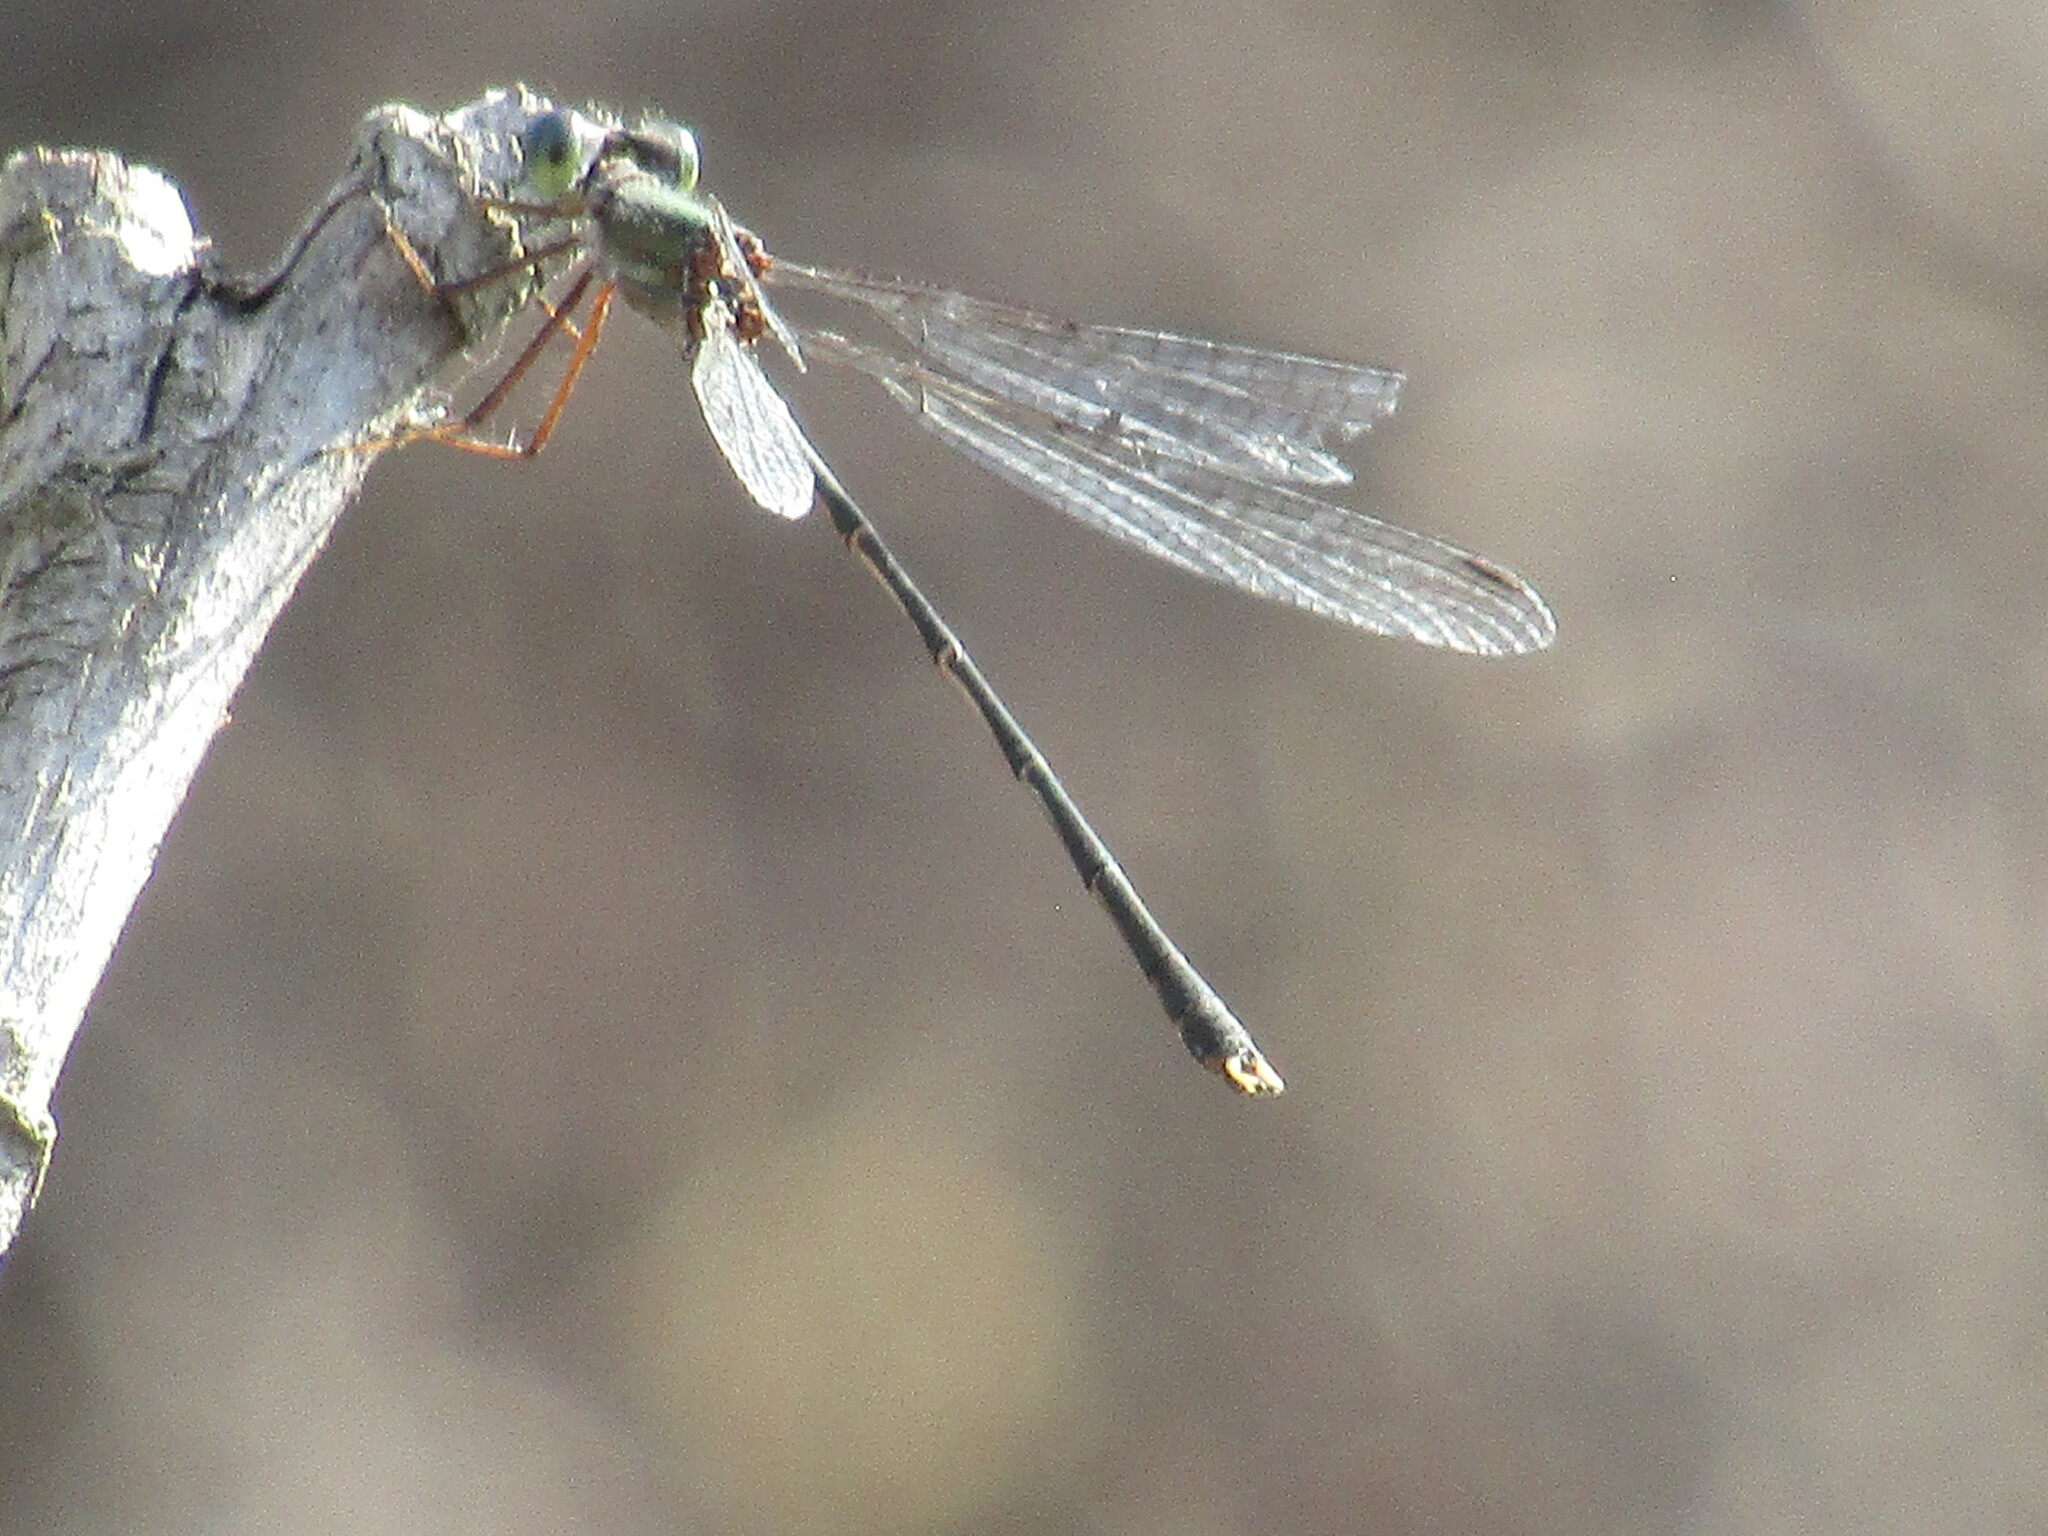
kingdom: Animalia
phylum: Arthropoda
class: Insecta
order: Odonata
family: Lestidae
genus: Chalcolestes
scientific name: Chalcolestes parvidens
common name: Eastern willow spreadwing
